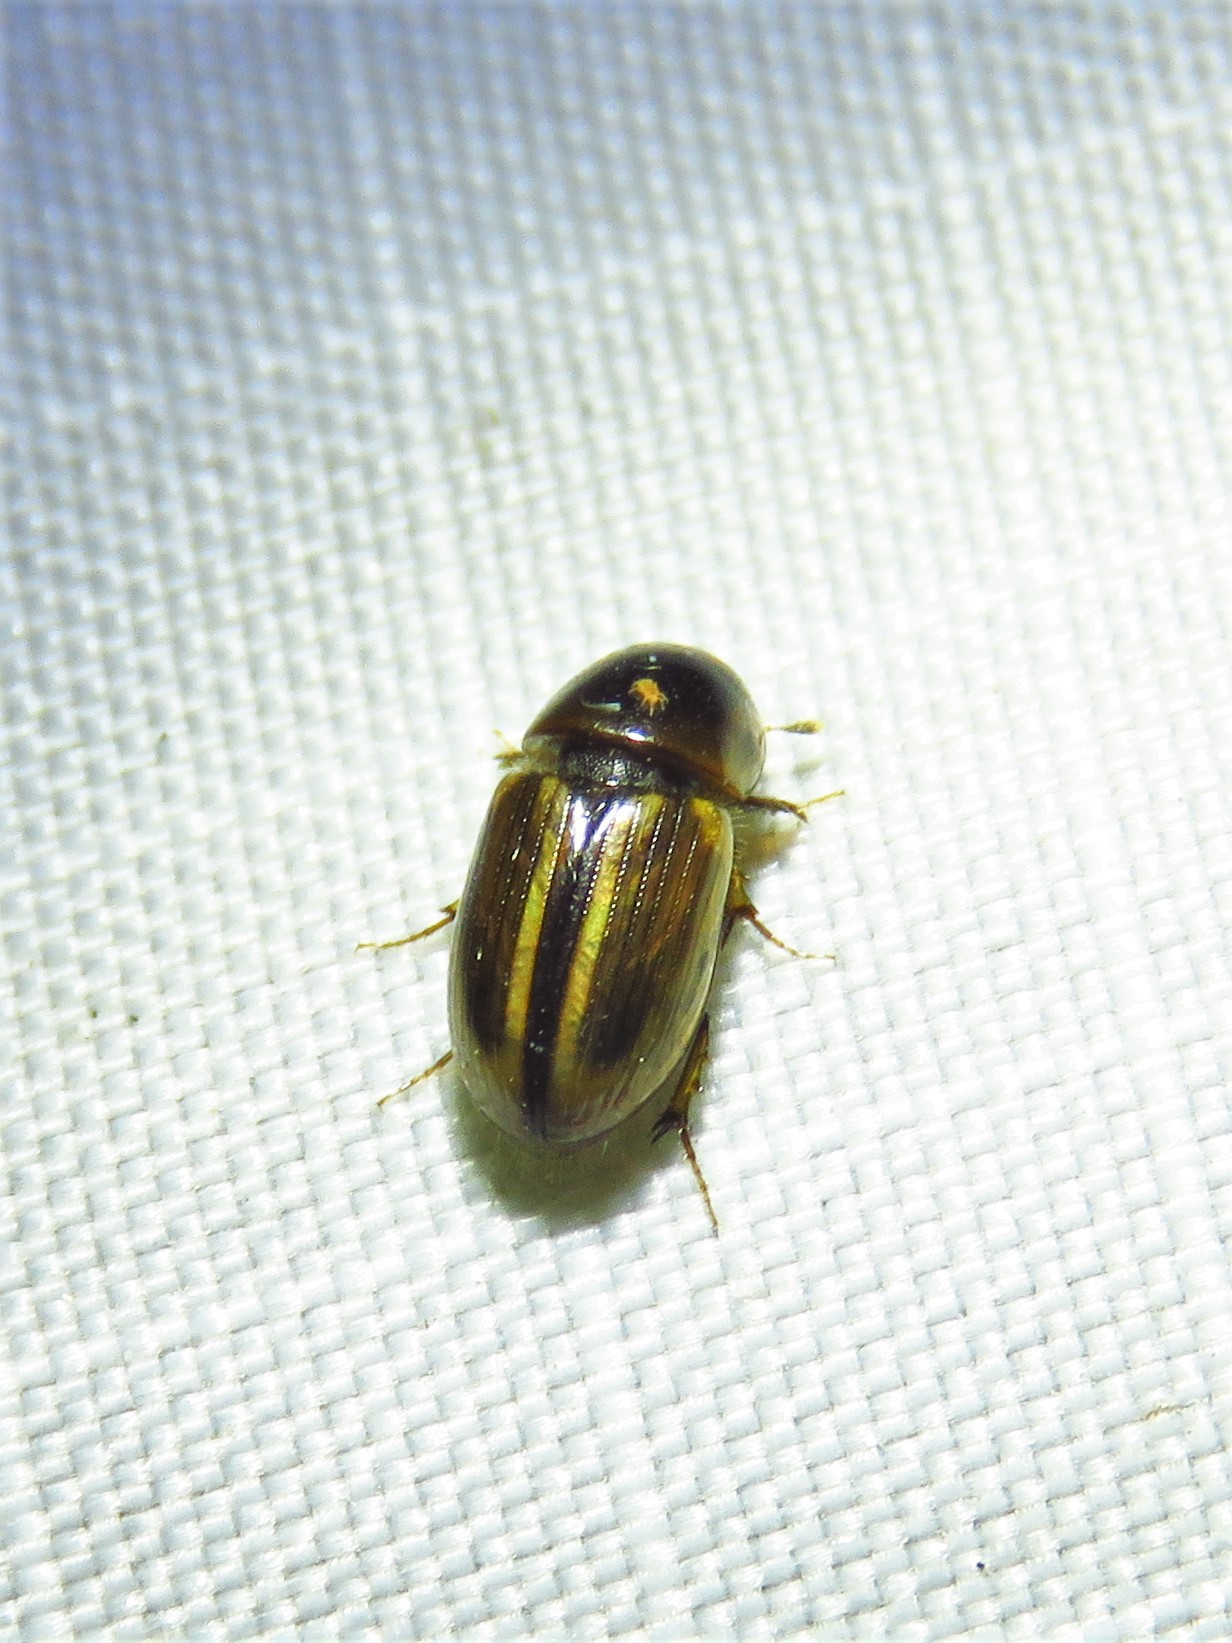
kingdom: Animalia
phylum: Arthropoda
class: Insecta
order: Coleoptera
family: Scarabaeidae
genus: Labarrus
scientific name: Labarrus lividus
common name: Scarab beetle
